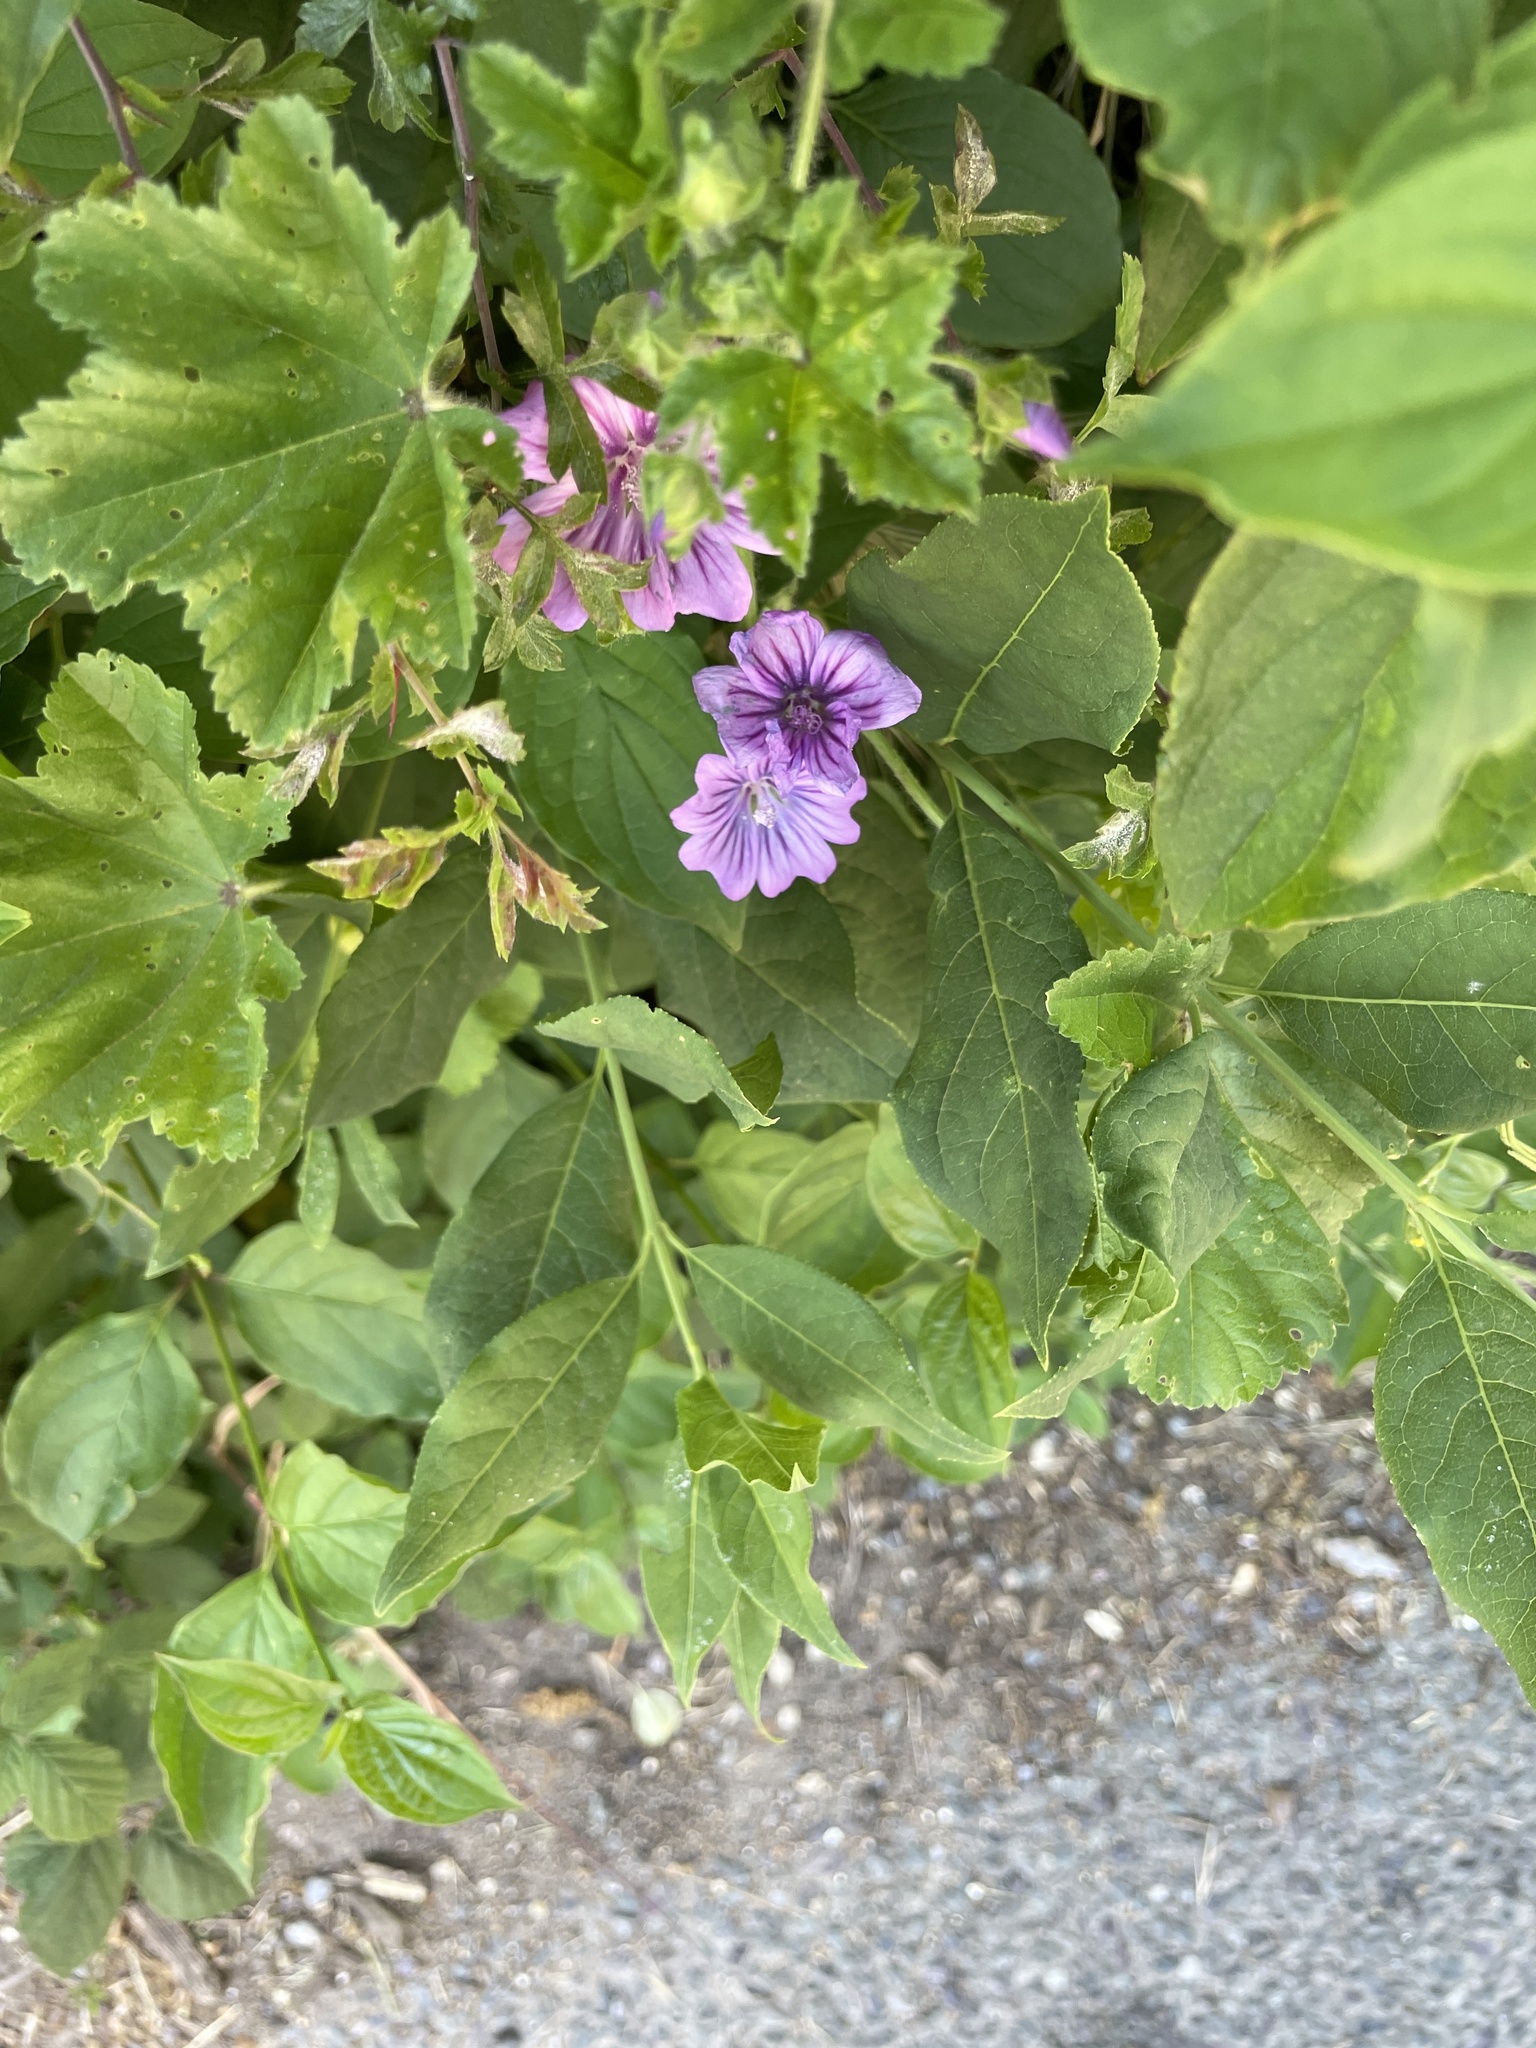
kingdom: Plantae
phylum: Tracheophyta
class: Magnoliopsida
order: Malvales
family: Malvaceae
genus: Malva
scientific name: Malva sylvestris
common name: Common mallow
